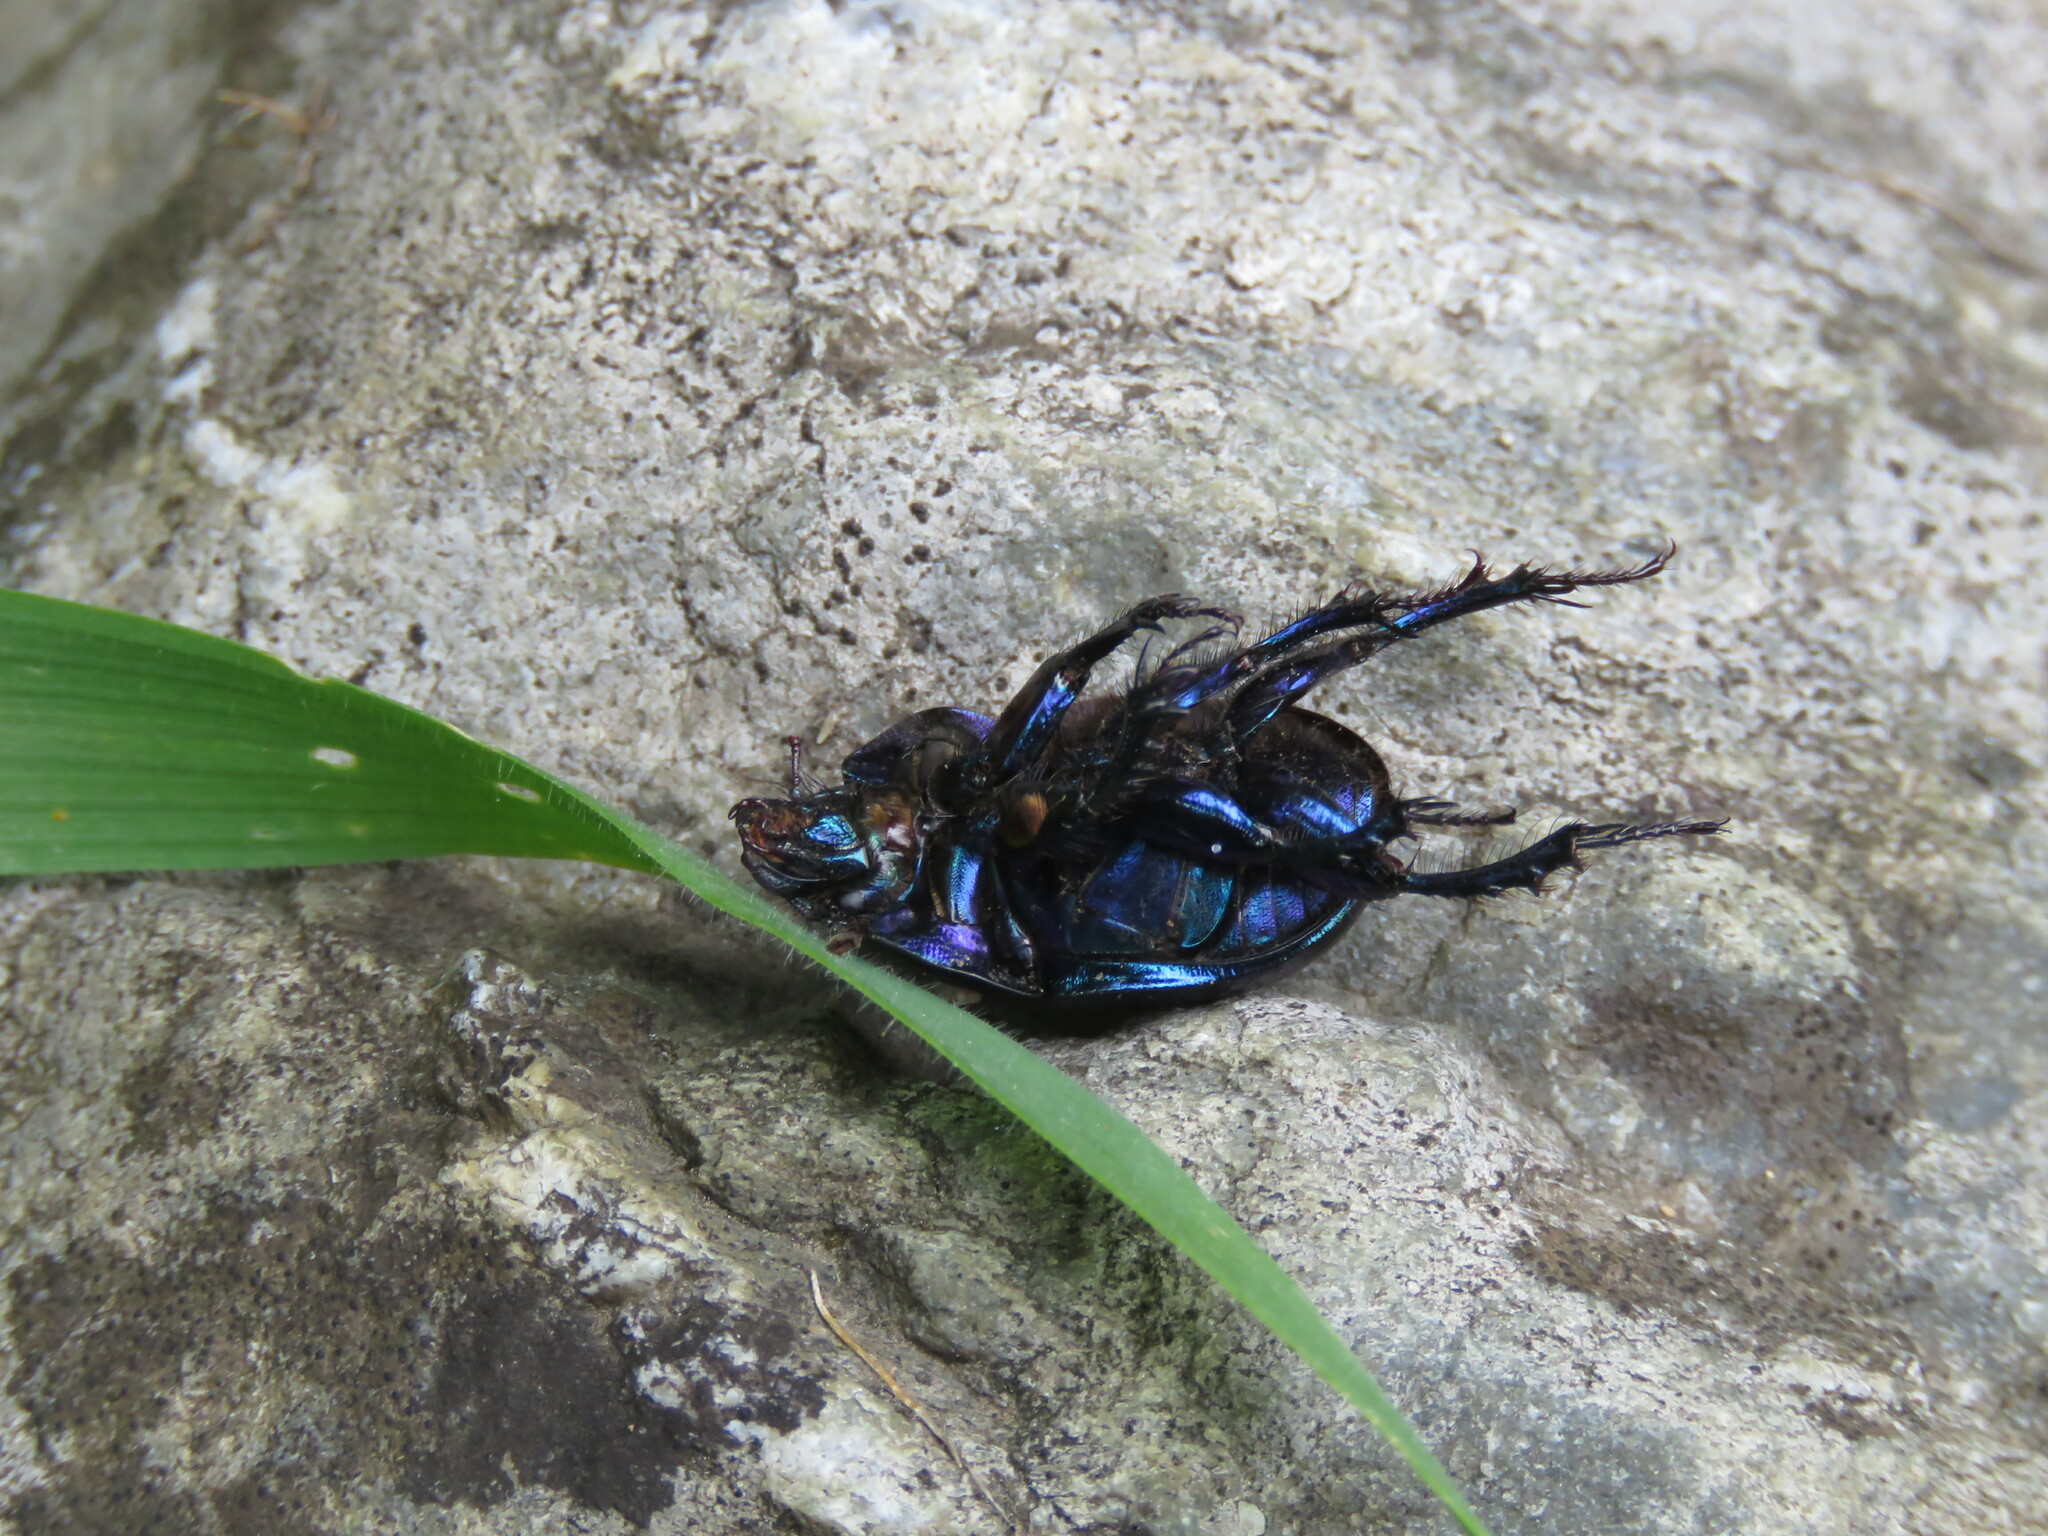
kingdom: Animalia
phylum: Arthropoda
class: Insecta
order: Coleoptera
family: Geotrupidae
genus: Anoplotrupes
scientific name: Anoplotrupes stercorosus
